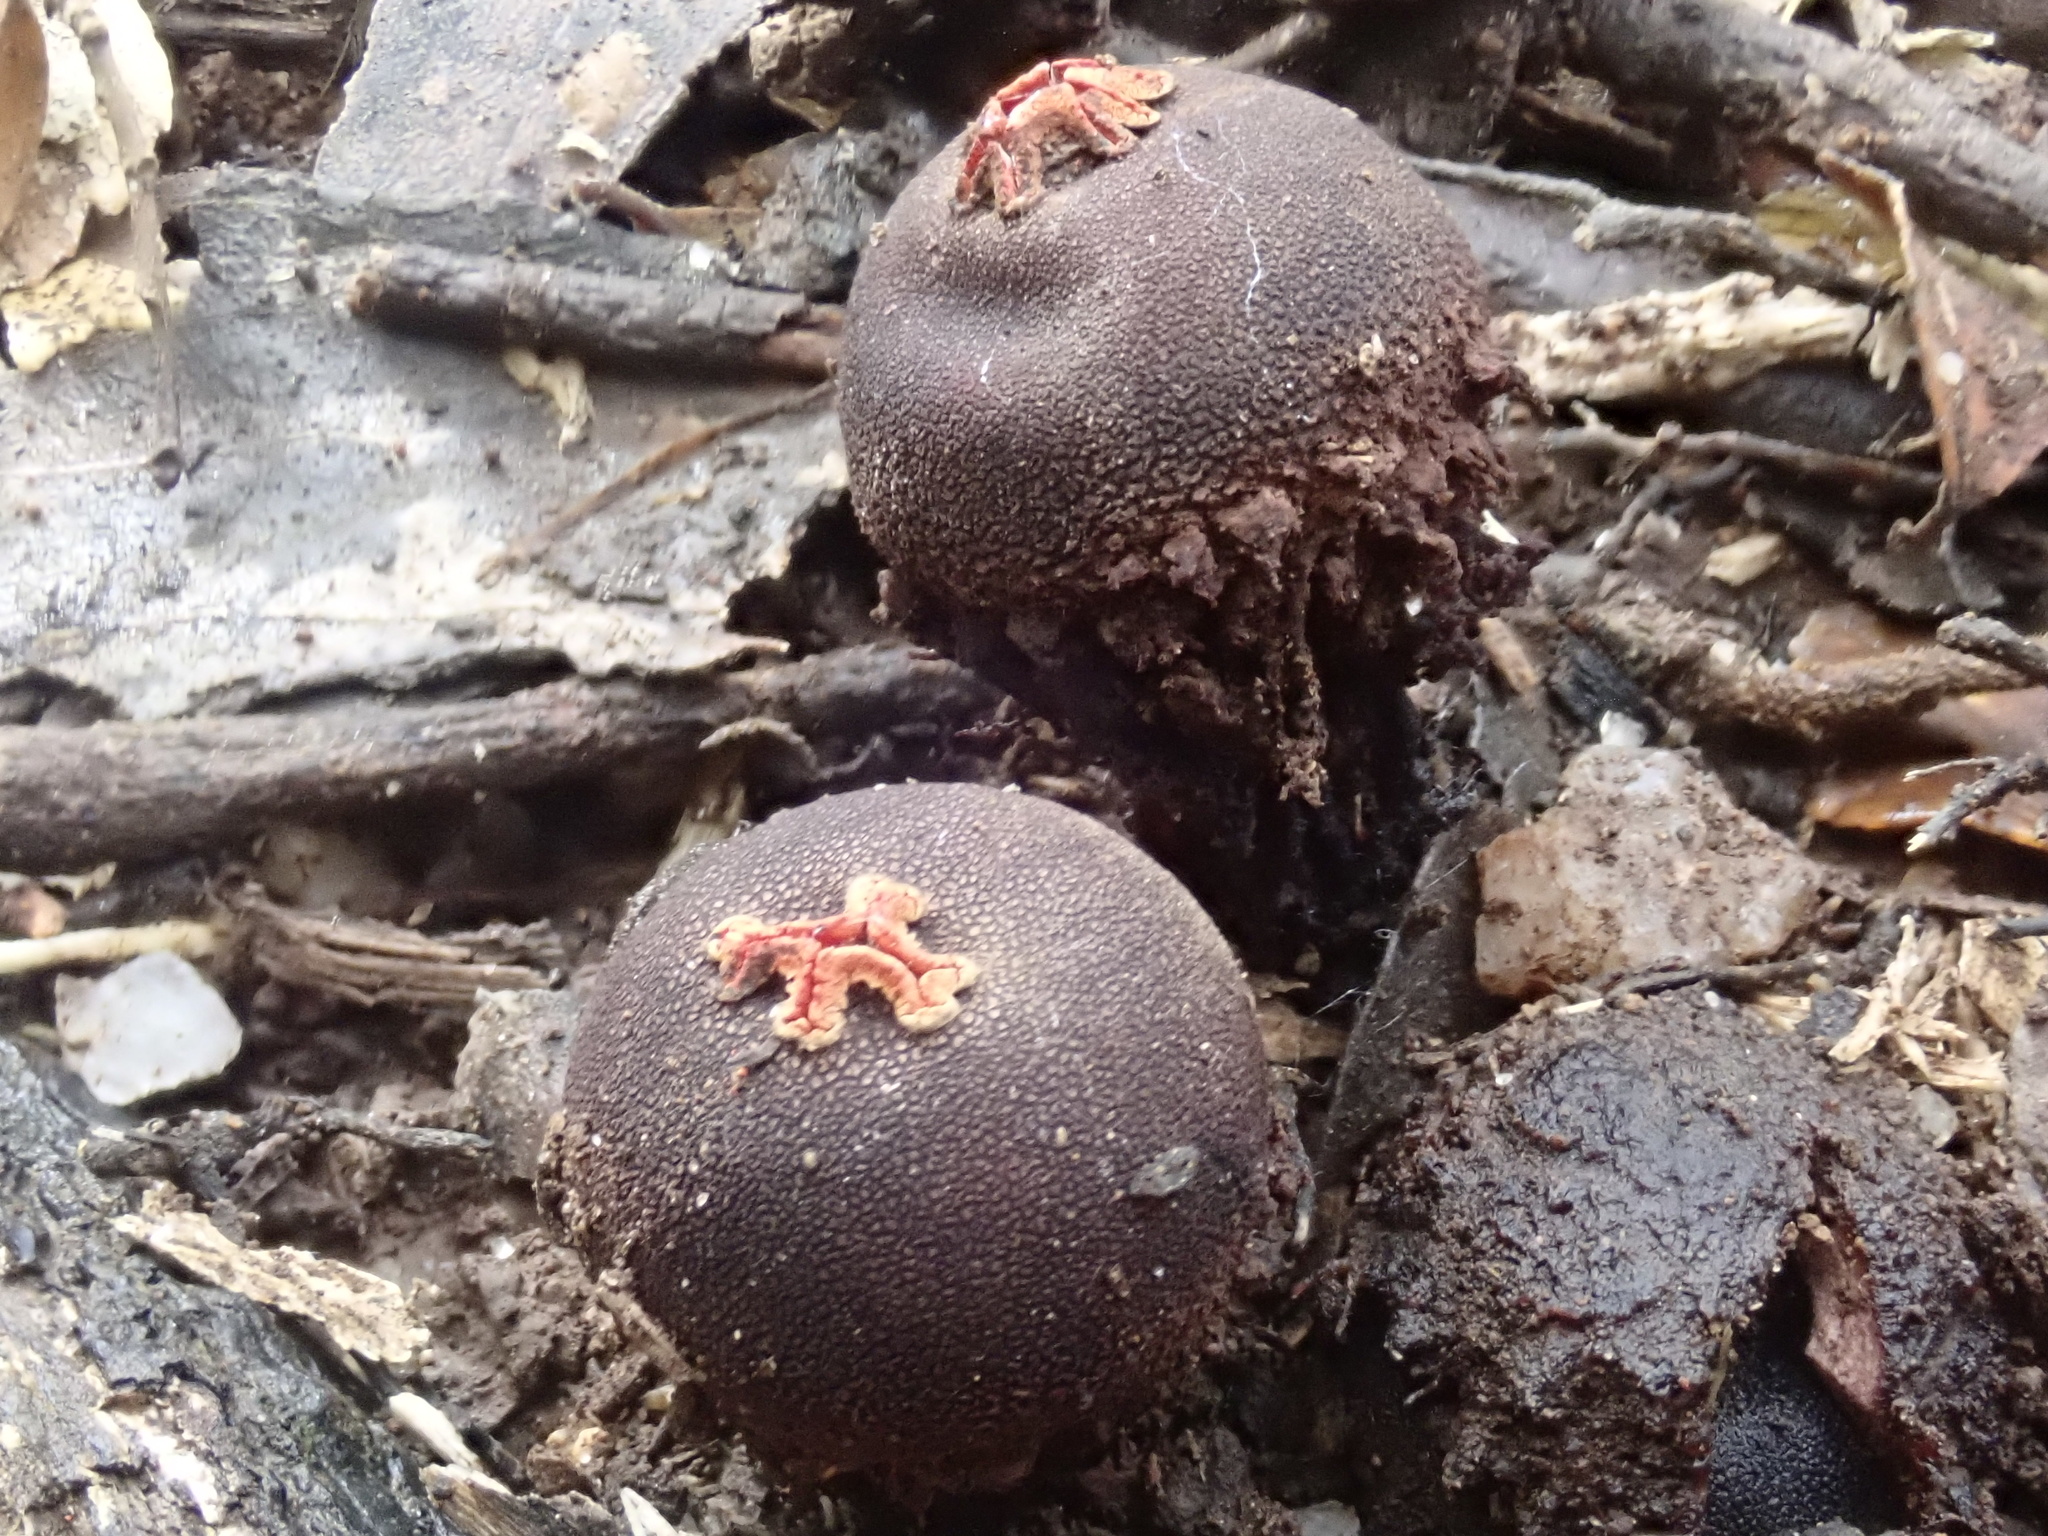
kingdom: Fungi
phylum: Basidiomycota
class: Agaricomycetes
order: Boletales
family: Calostomataceae
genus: Calostoma
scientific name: Calostoma rodwayi
